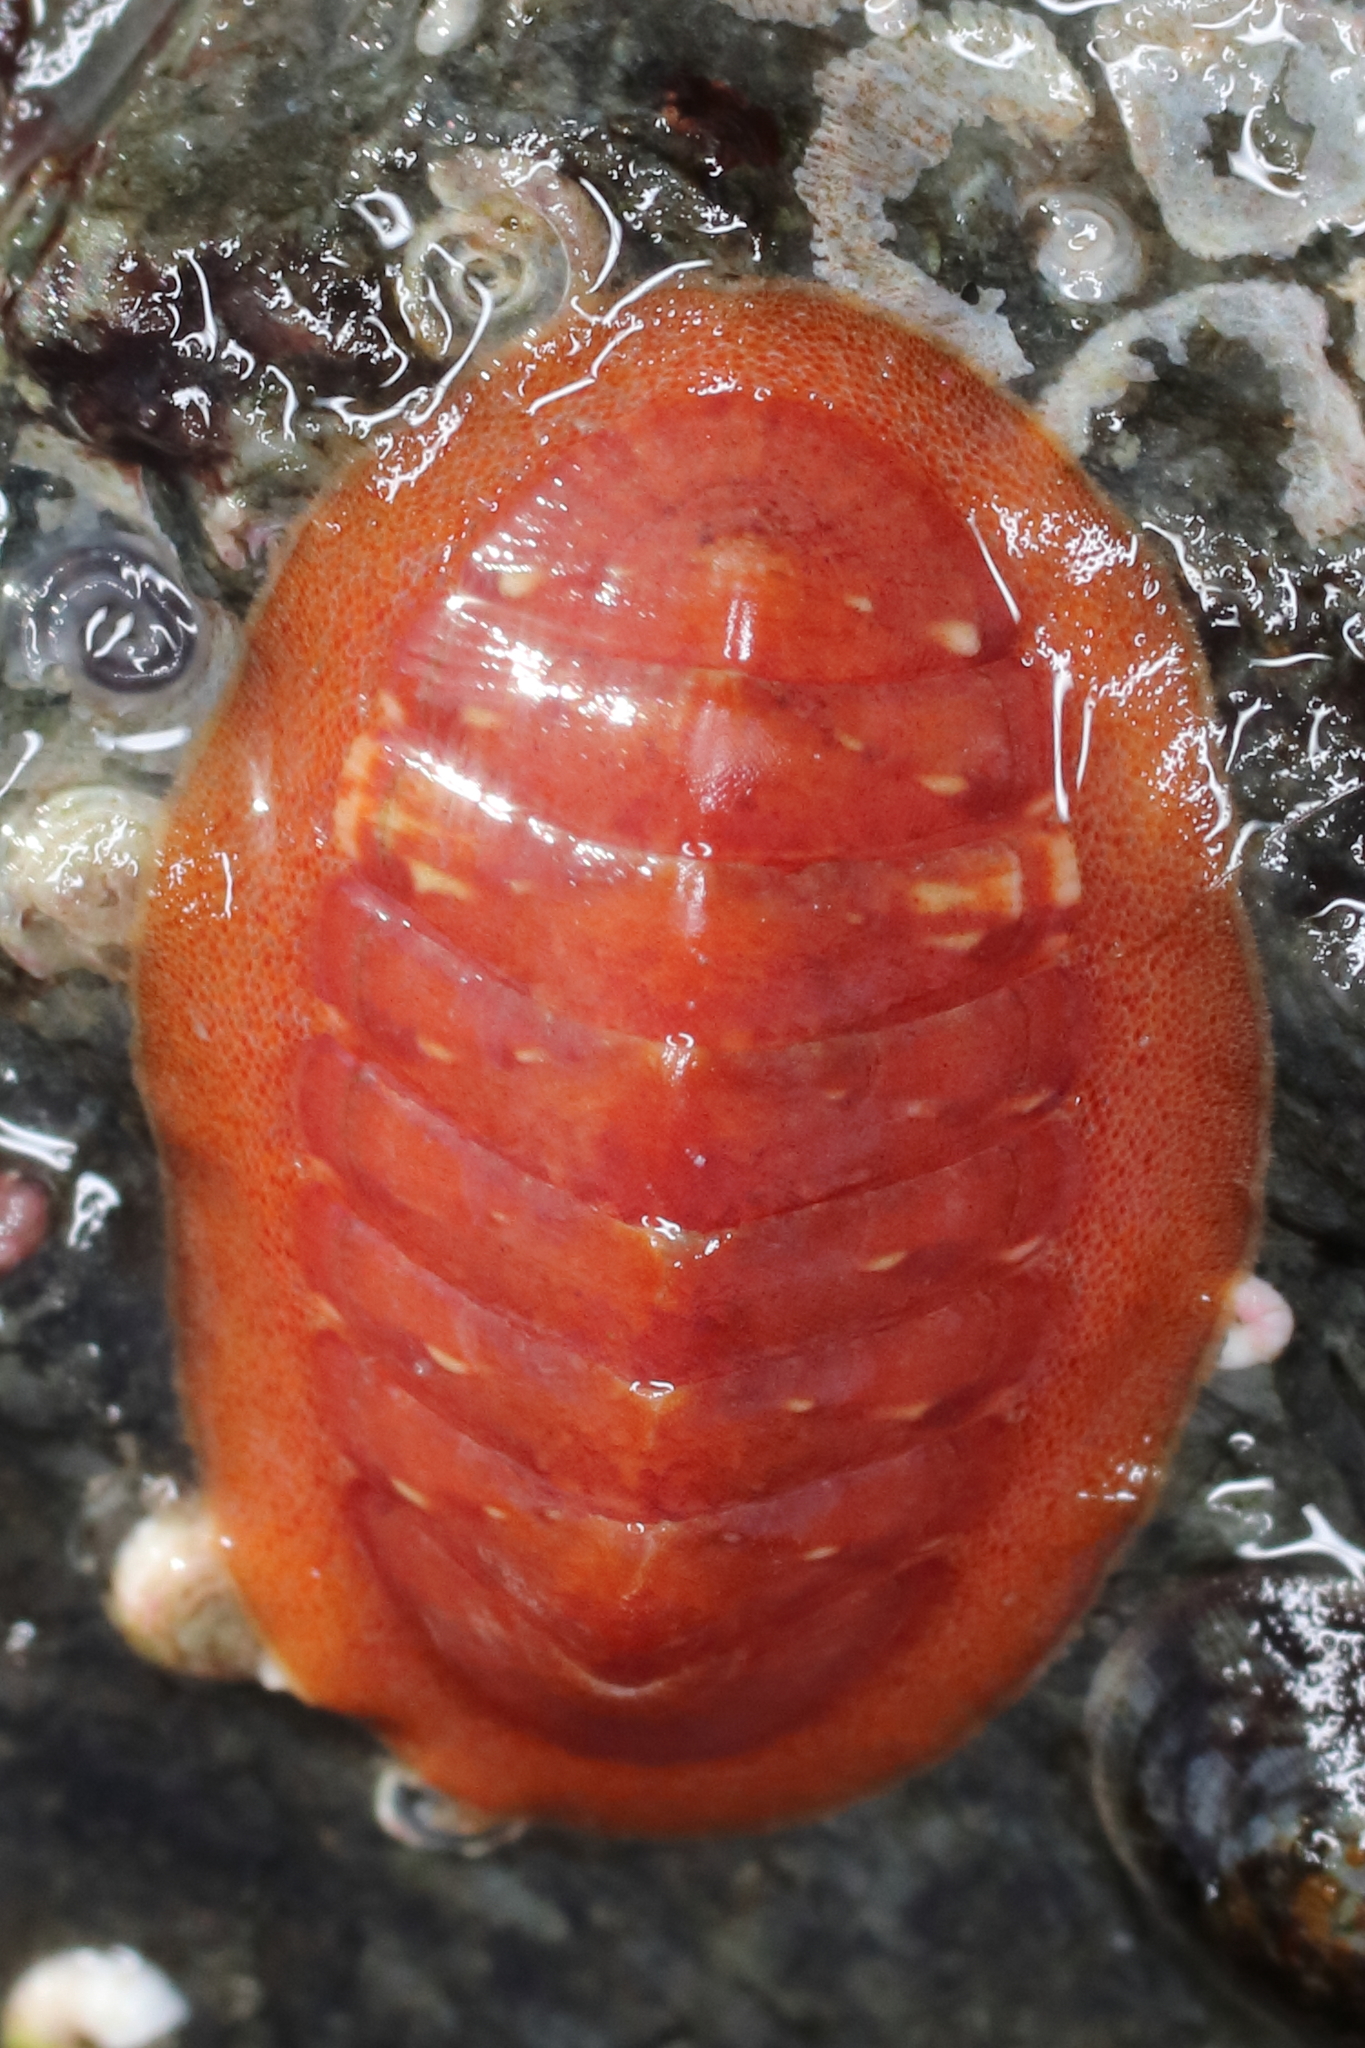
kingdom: Animalia
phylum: Mollusca
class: Polyplacophora
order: Chitonida
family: Ischnochitonidae
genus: Lepidozona
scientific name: Lepidozona interstincta
